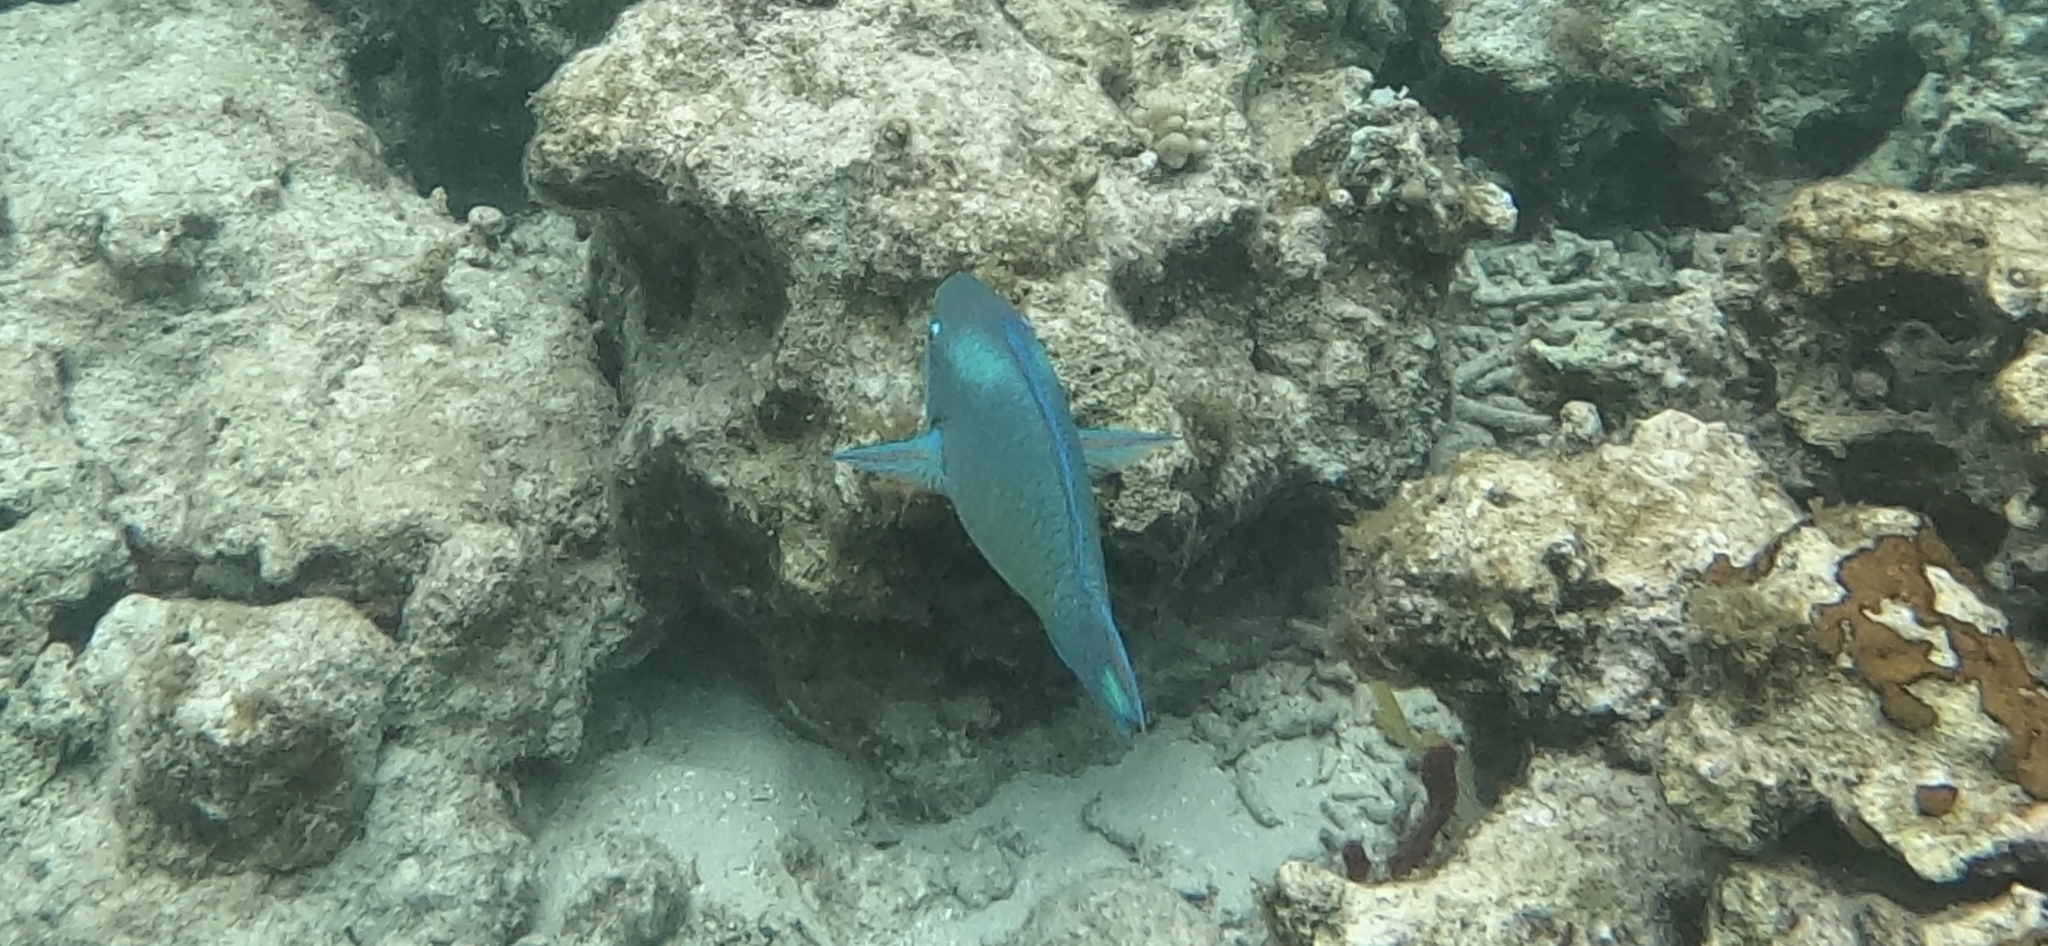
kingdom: Animalia
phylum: Chordata
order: Perciformes
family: Scaridae
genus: Scarus
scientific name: Scarus vetula
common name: Queen parrotfish
